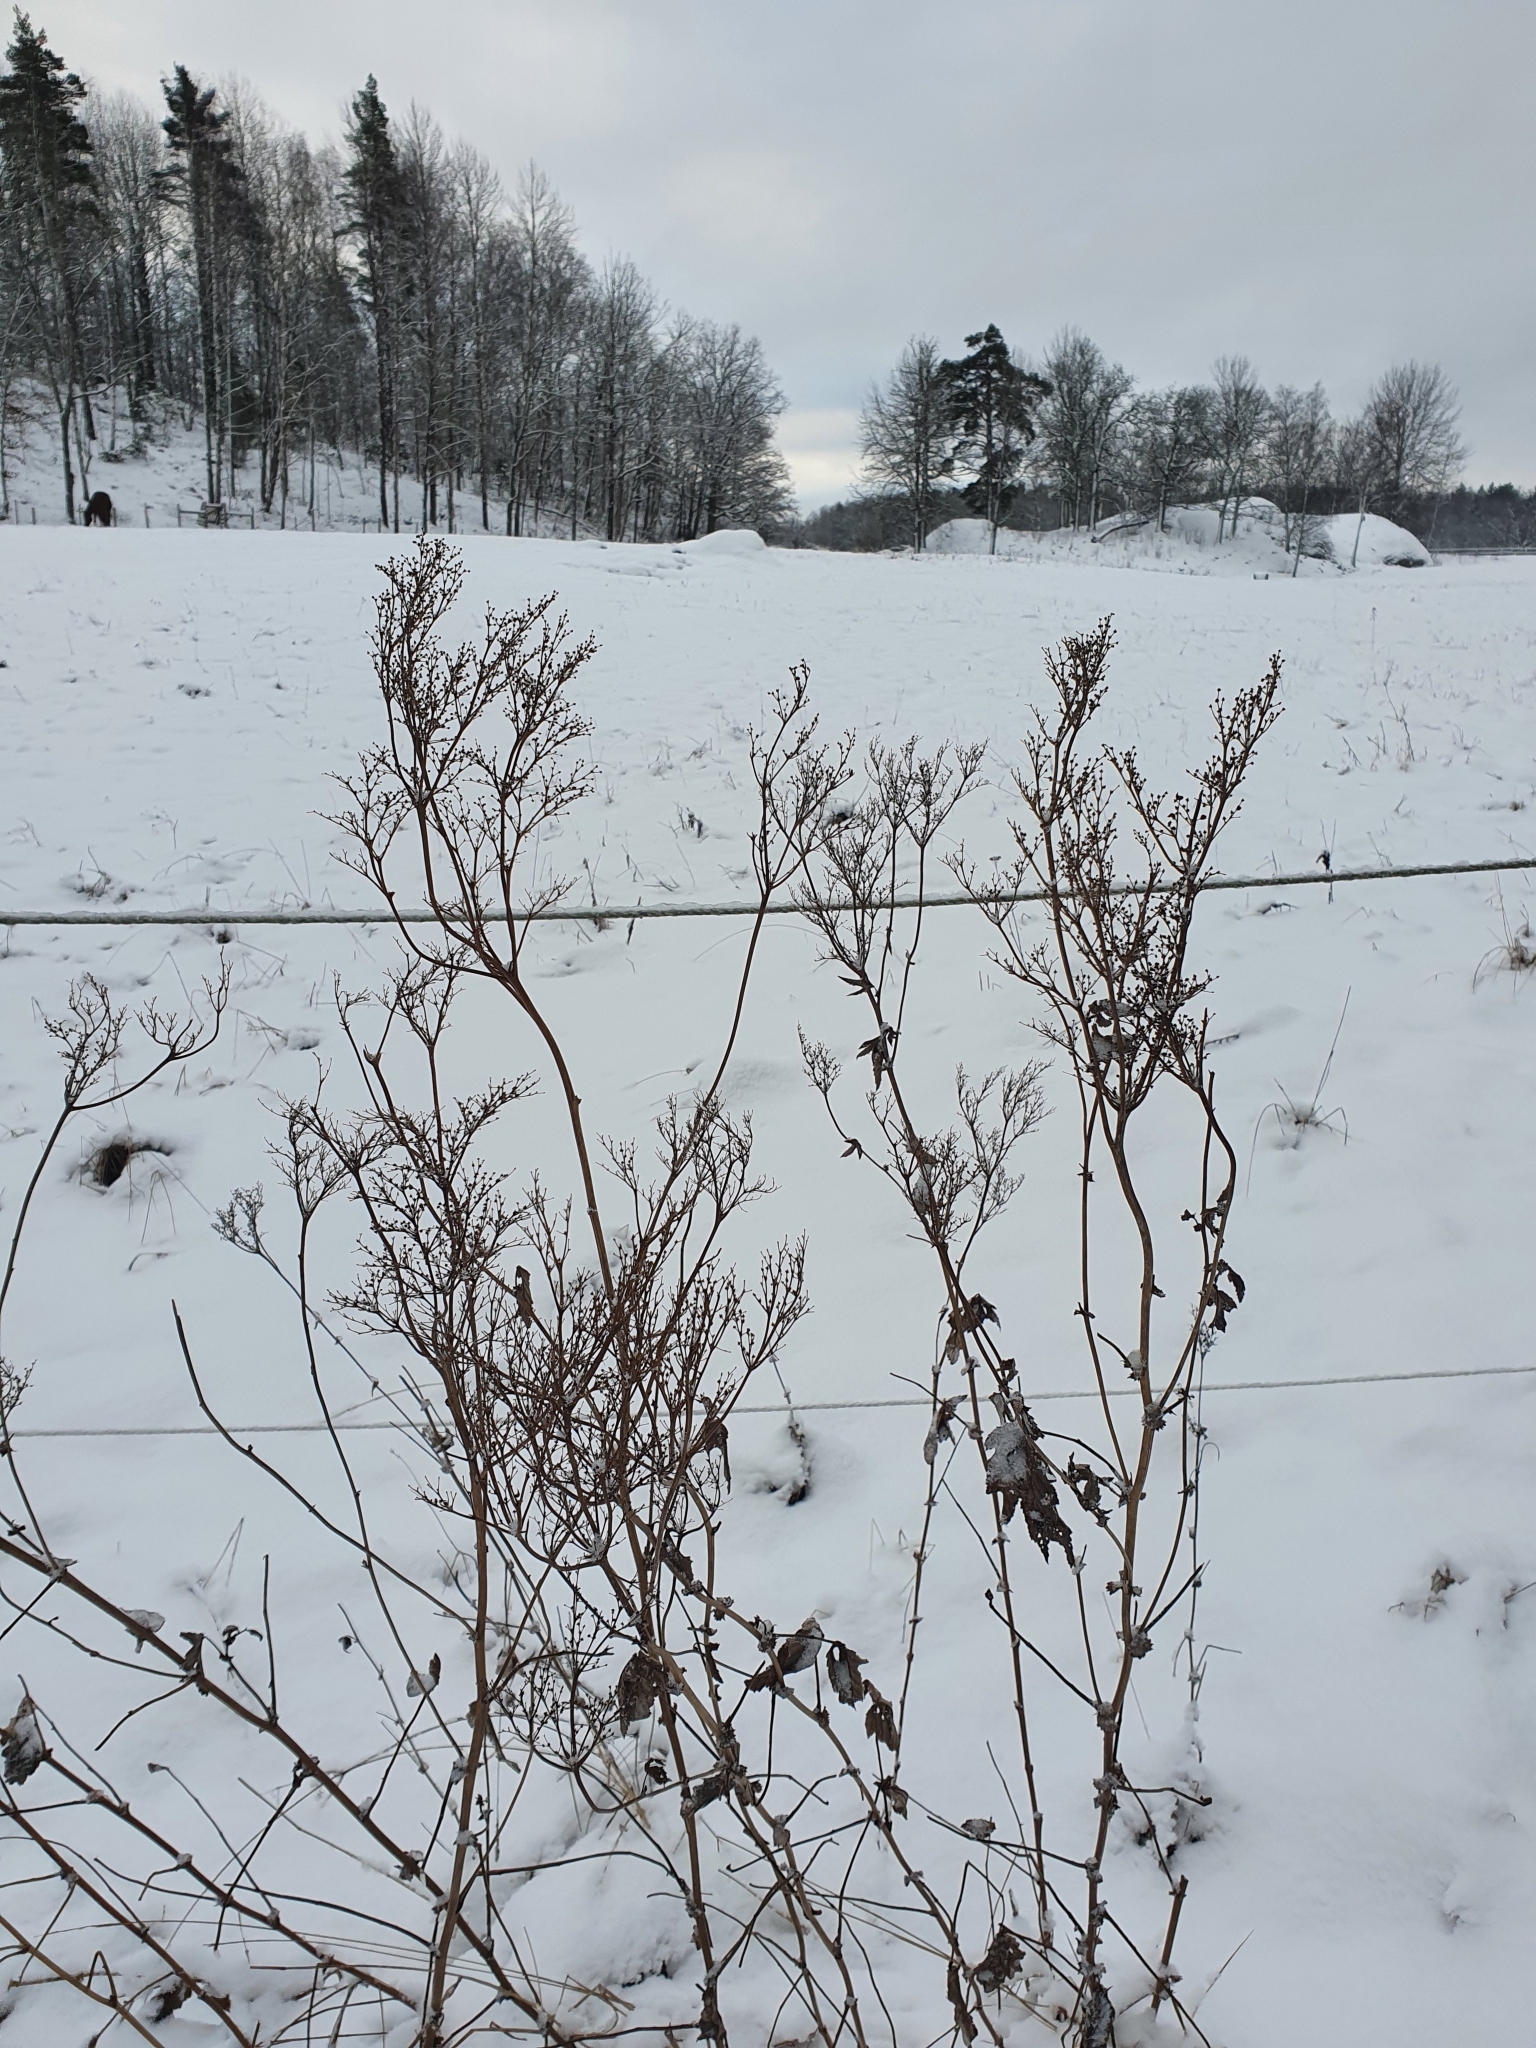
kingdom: Plantae
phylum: Tracheophyta
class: Magnoliopsida
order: Rosales
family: Rosaceae
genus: Filipendula
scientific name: Filipendula ulmaria
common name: Meadowsweet
